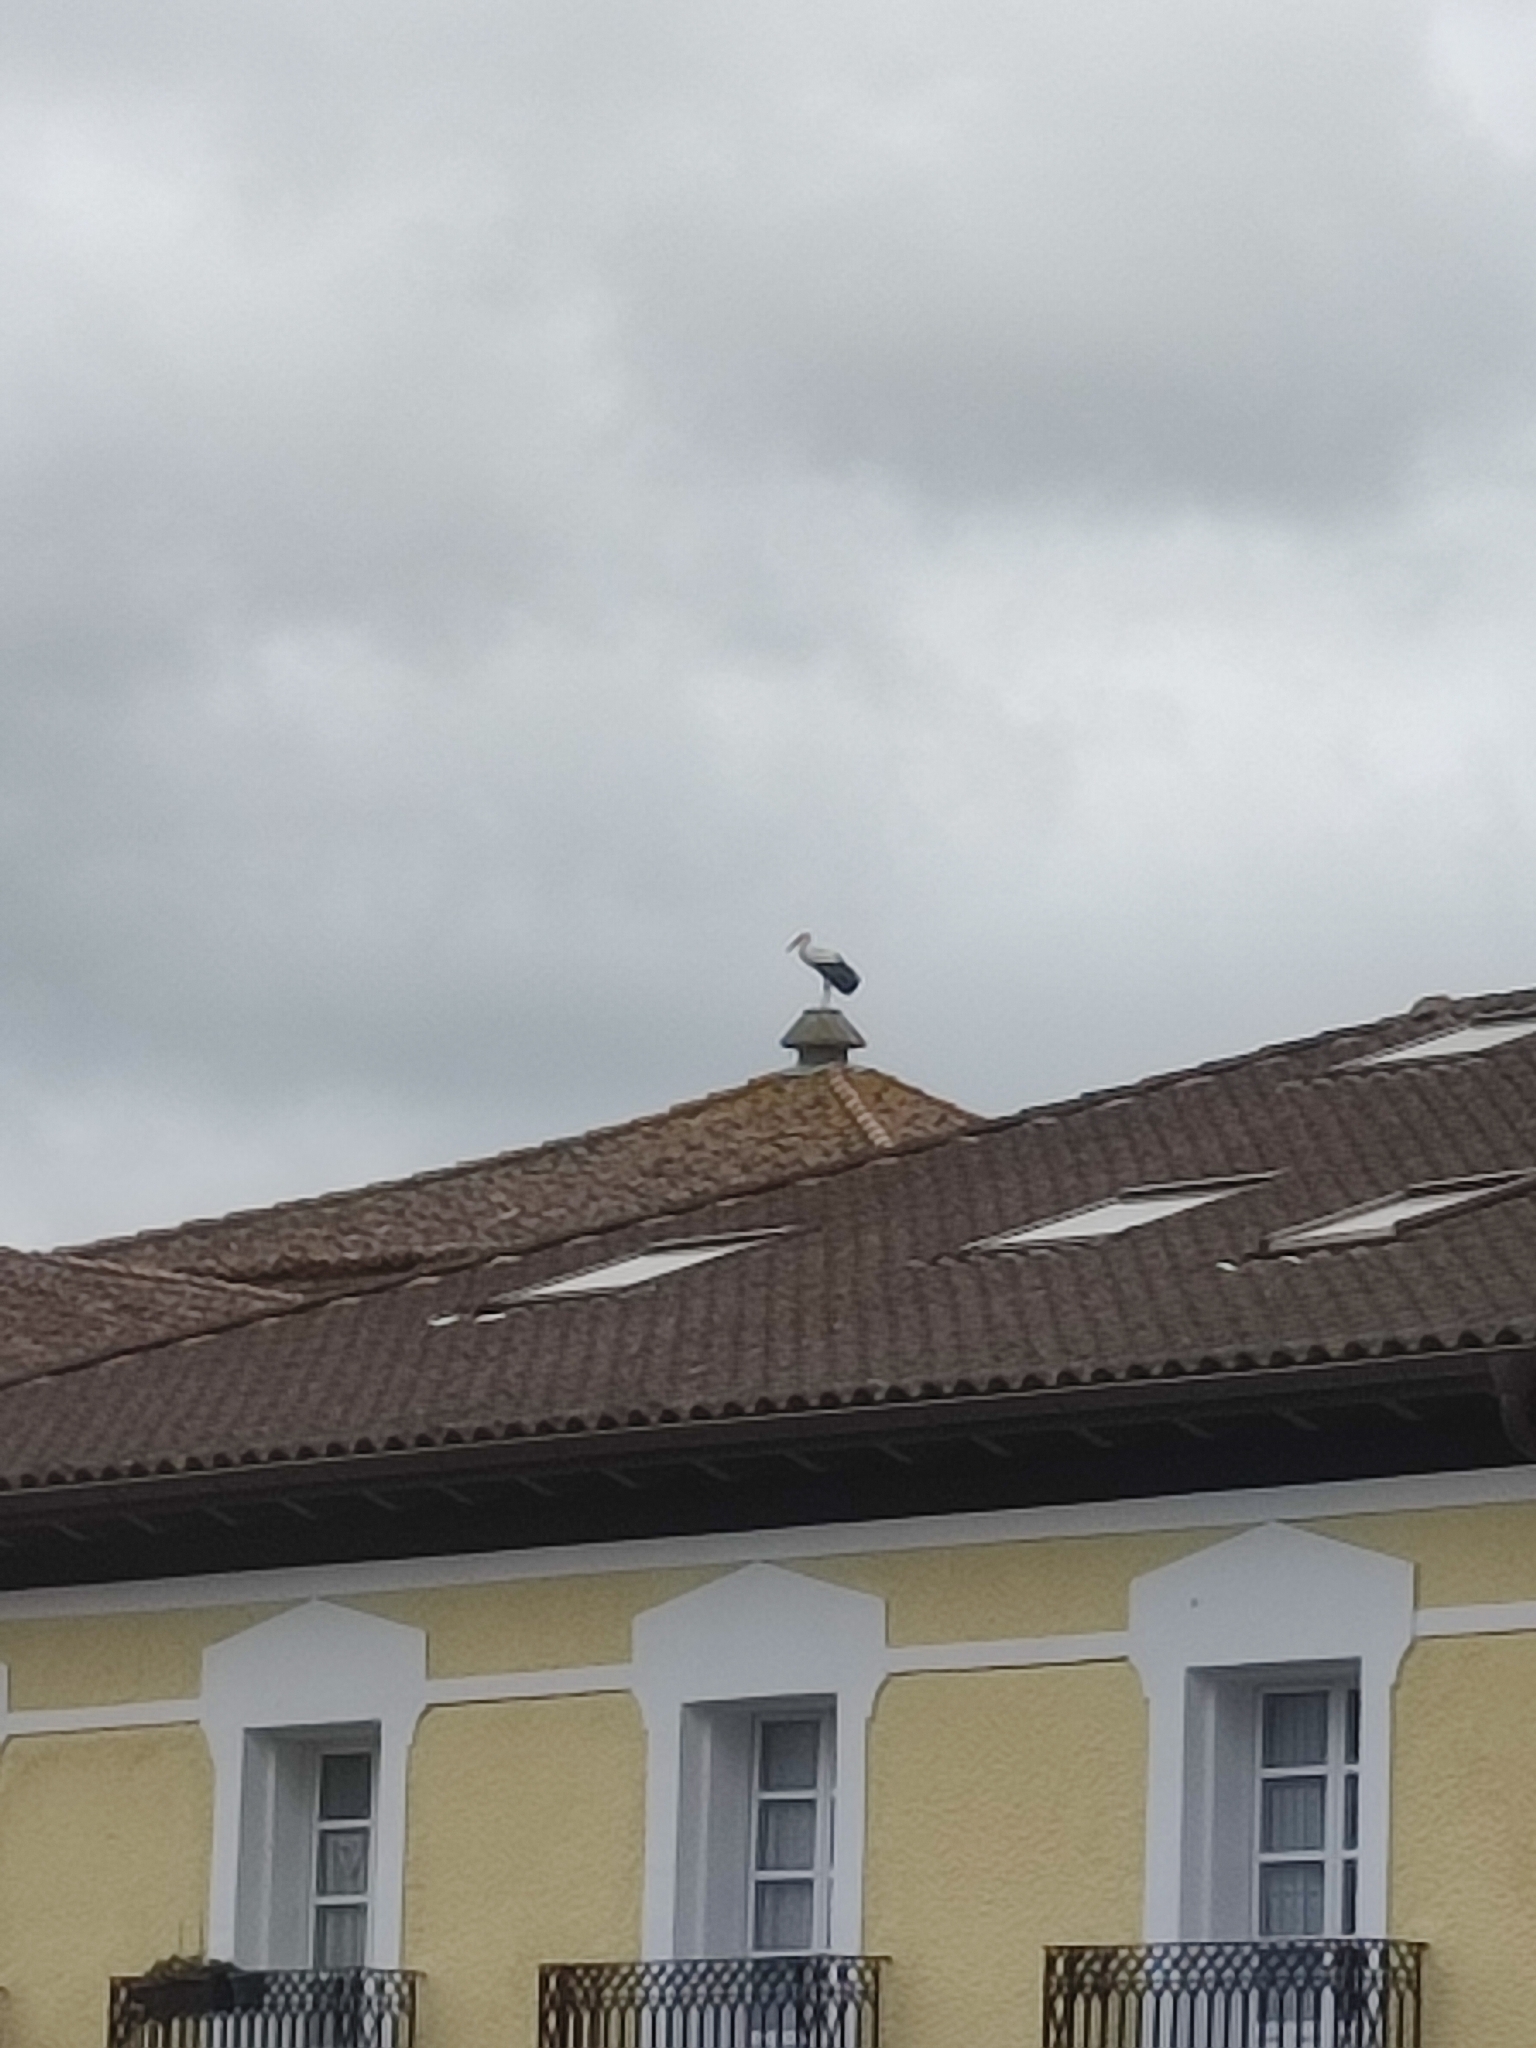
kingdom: Animalia
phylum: Chordata
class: Aves
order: Ciconiiformes
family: Ciconiidae
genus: Ciconia
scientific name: Ciconia ciconia
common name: White stork
